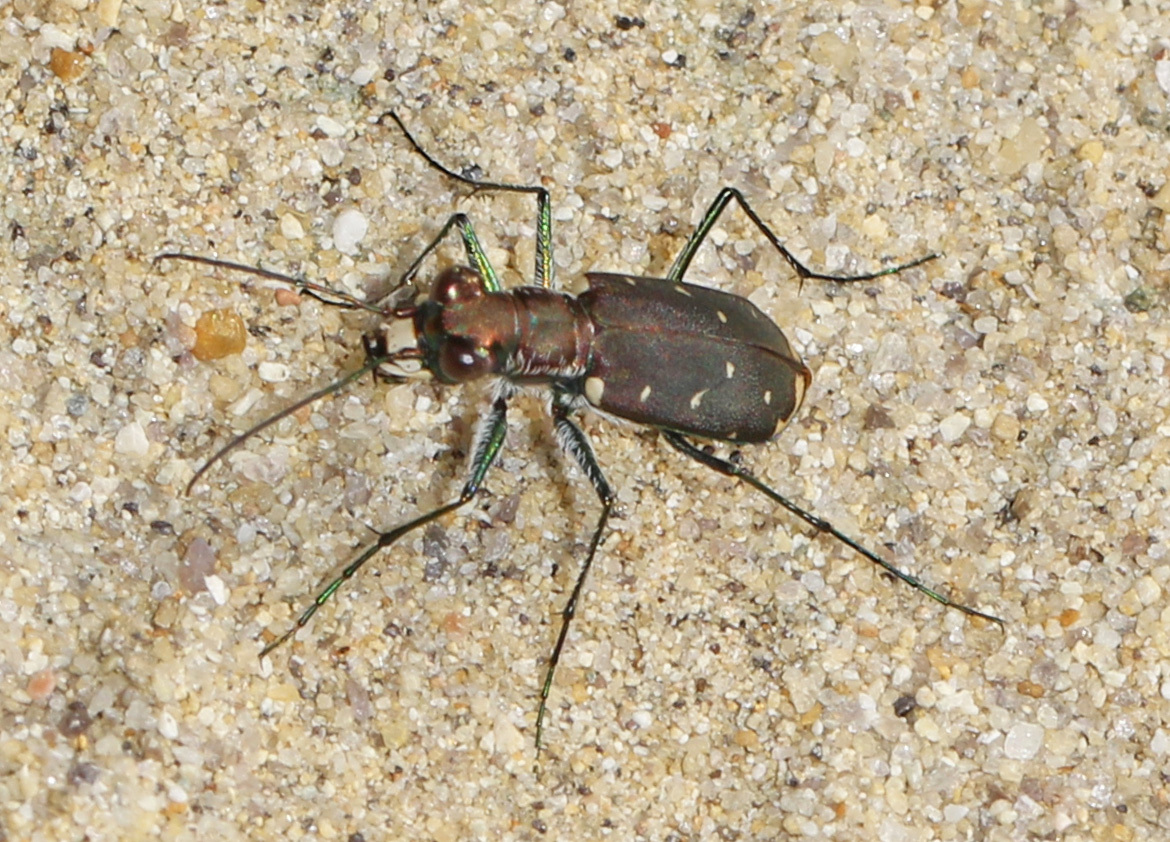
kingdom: Animalia
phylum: Arthropoda
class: Insecta
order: Coleoptera
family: Carabidae
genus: Cicindela
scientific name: Cicindela rufiventris
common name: Eastern red-bellied tiger beetle
